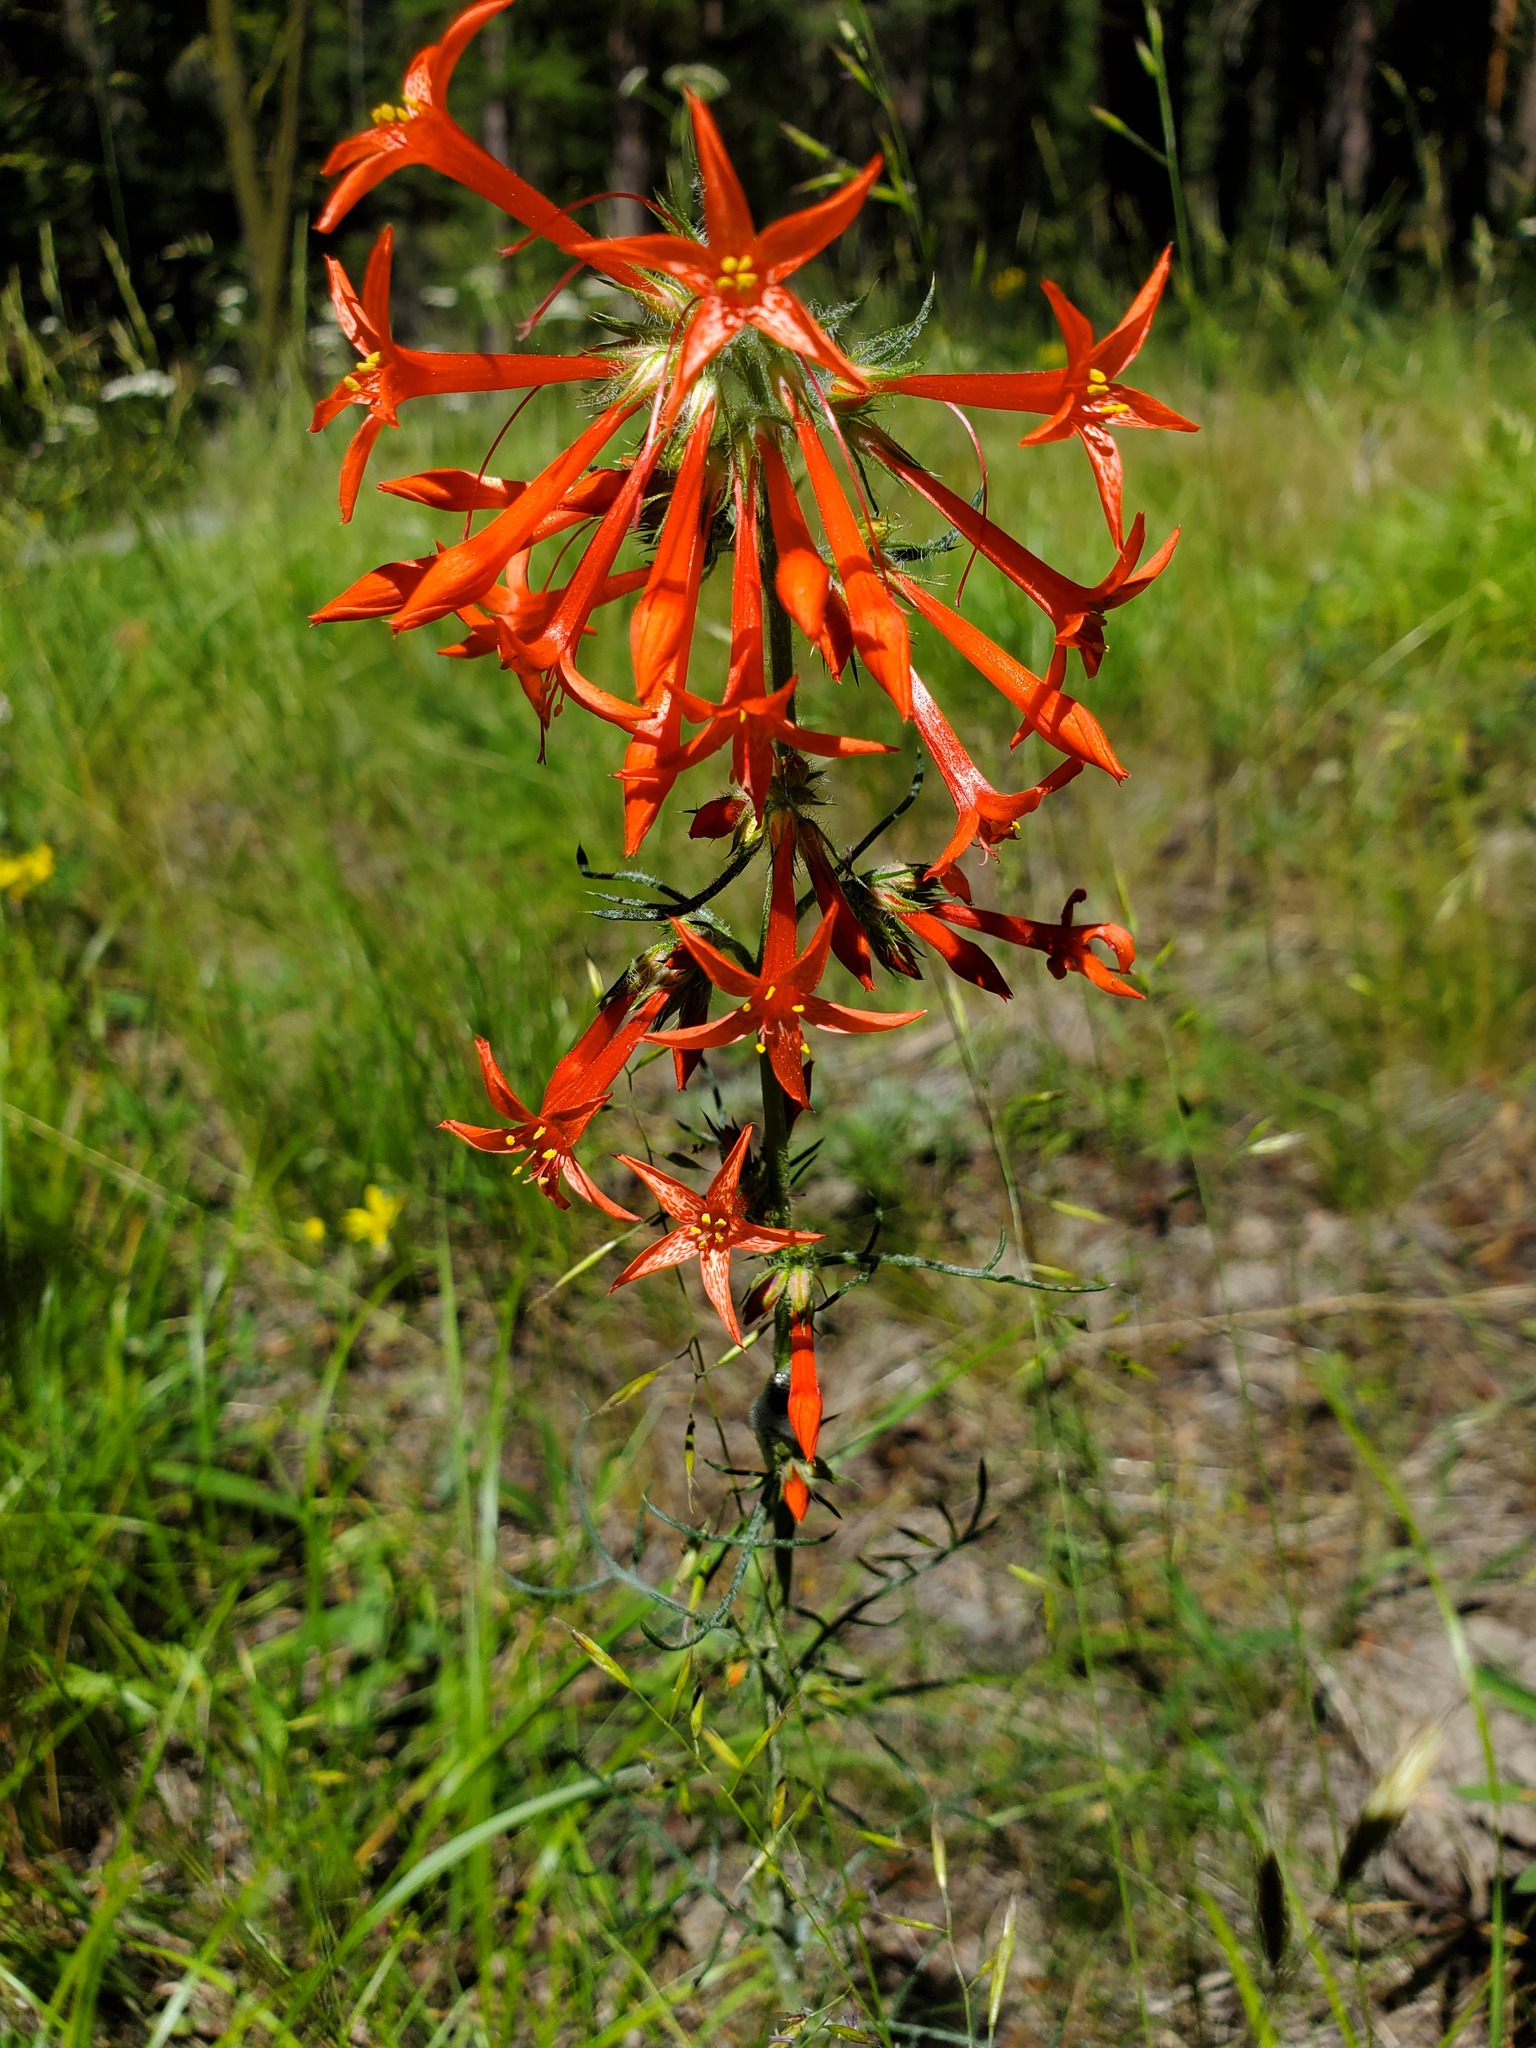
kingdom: Plantae
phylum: Tracheophyta
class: Magnoliopsida
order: Ericales
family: Polemoniaceae
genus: Ipomopsis
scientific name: Ipomopsis aggregata
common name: Scarlet gilia
